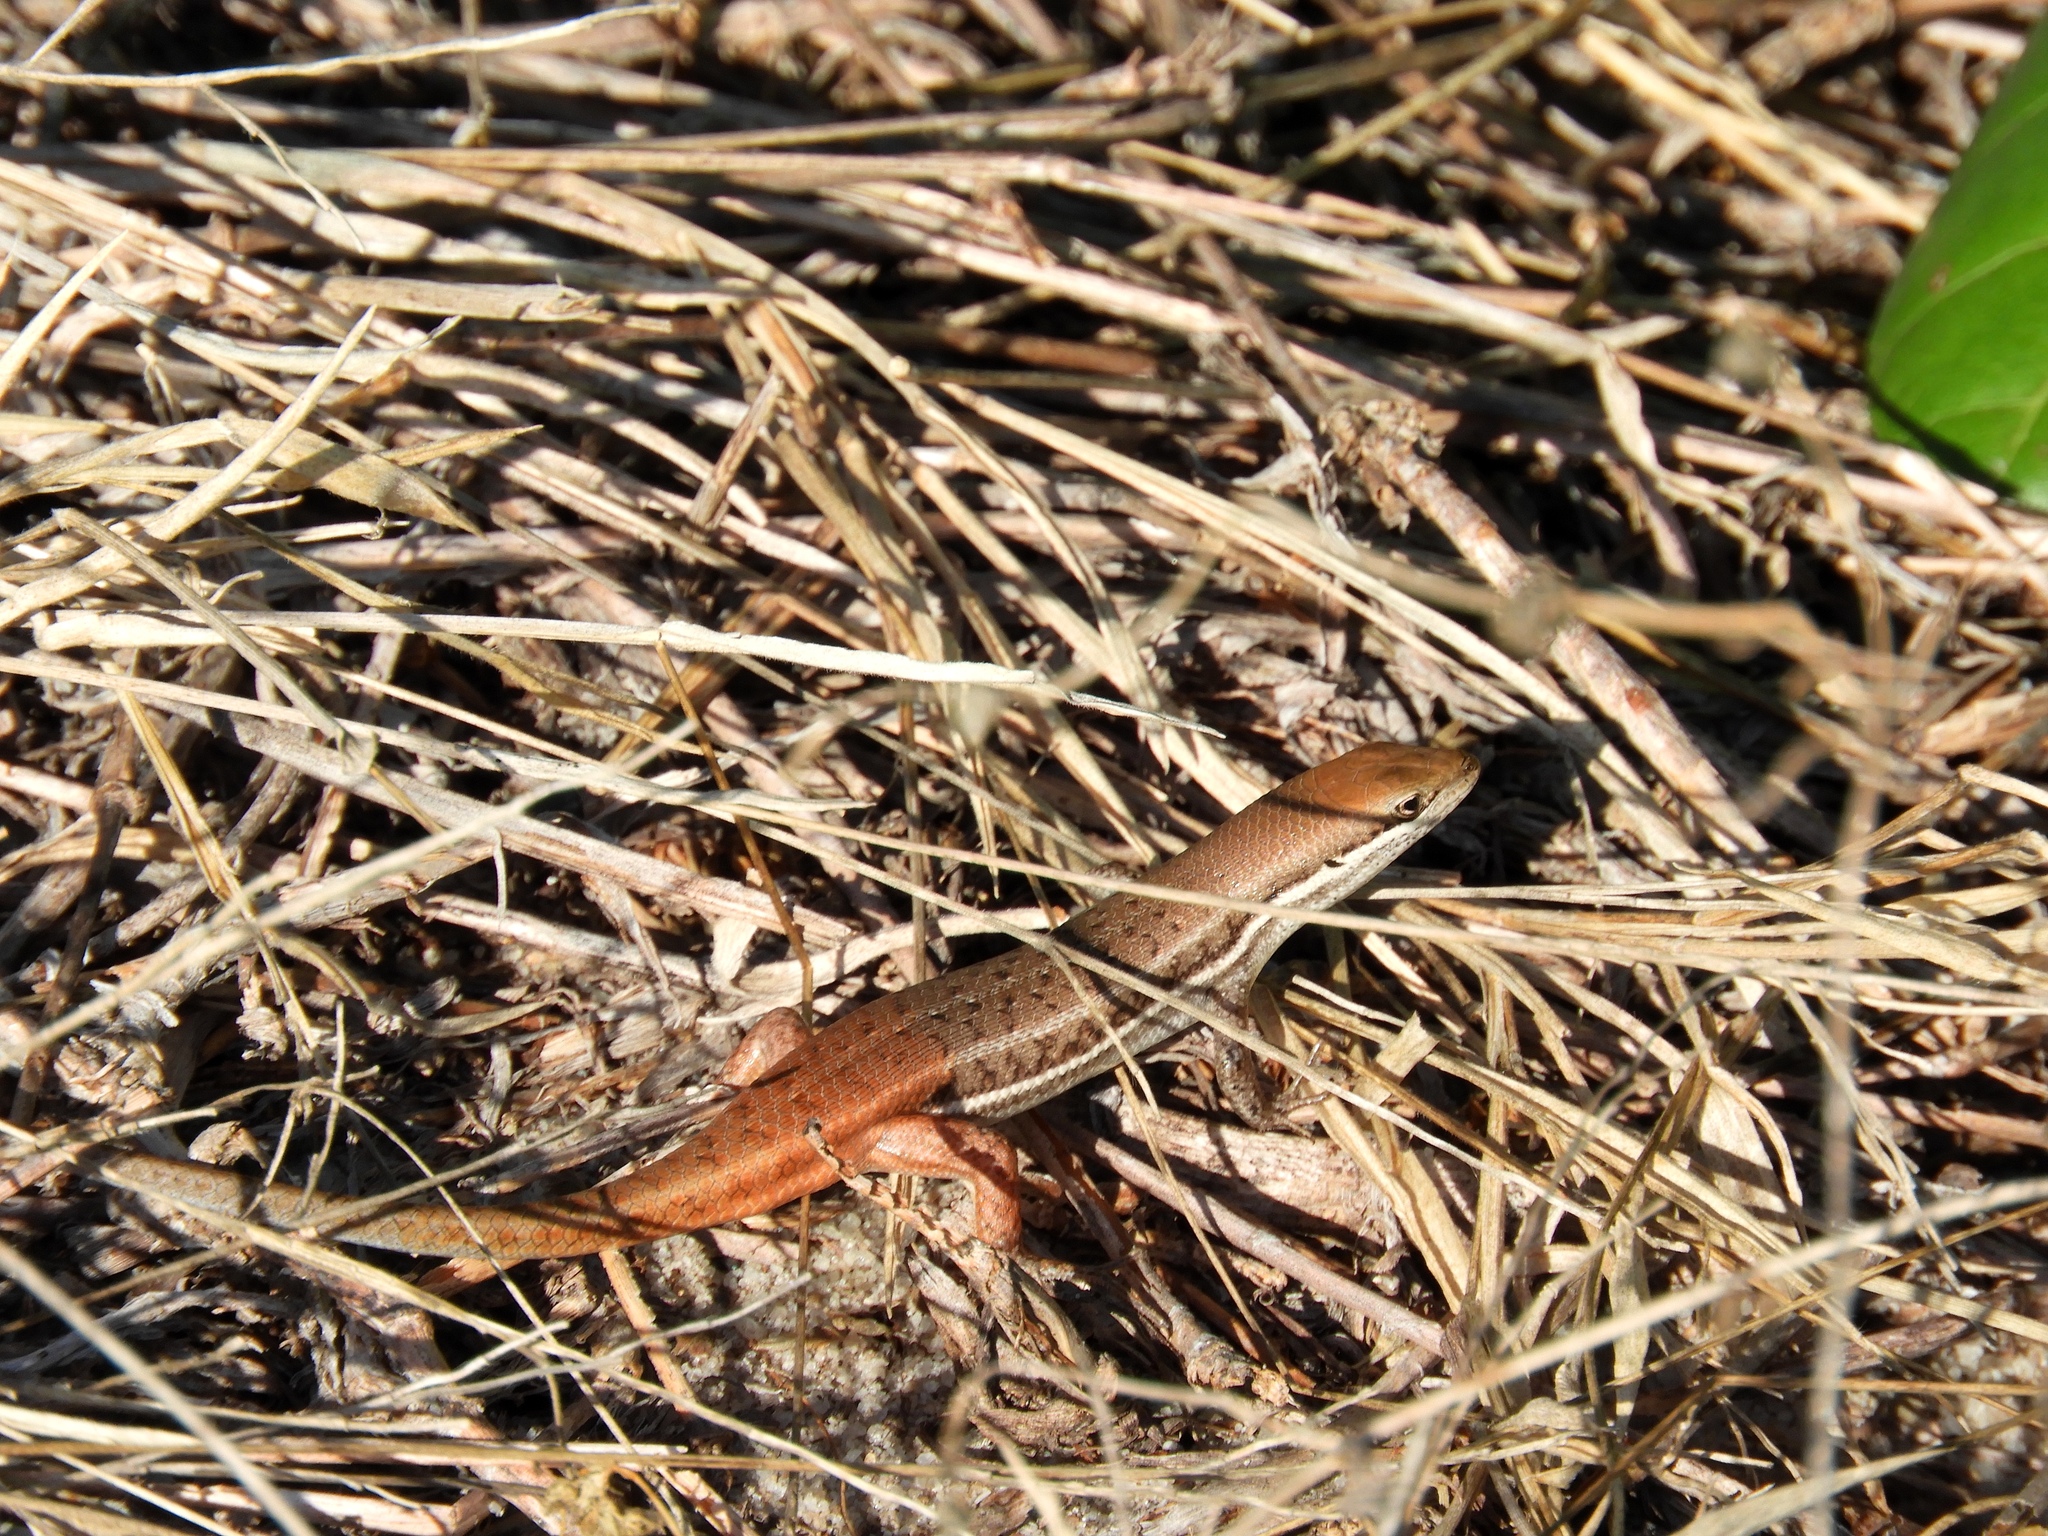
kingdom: Animalia
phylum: Chordata
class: Squamata
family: Scincidae
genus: Trachylepis
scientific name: Trachylepis varia
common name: Eastern variable skink
